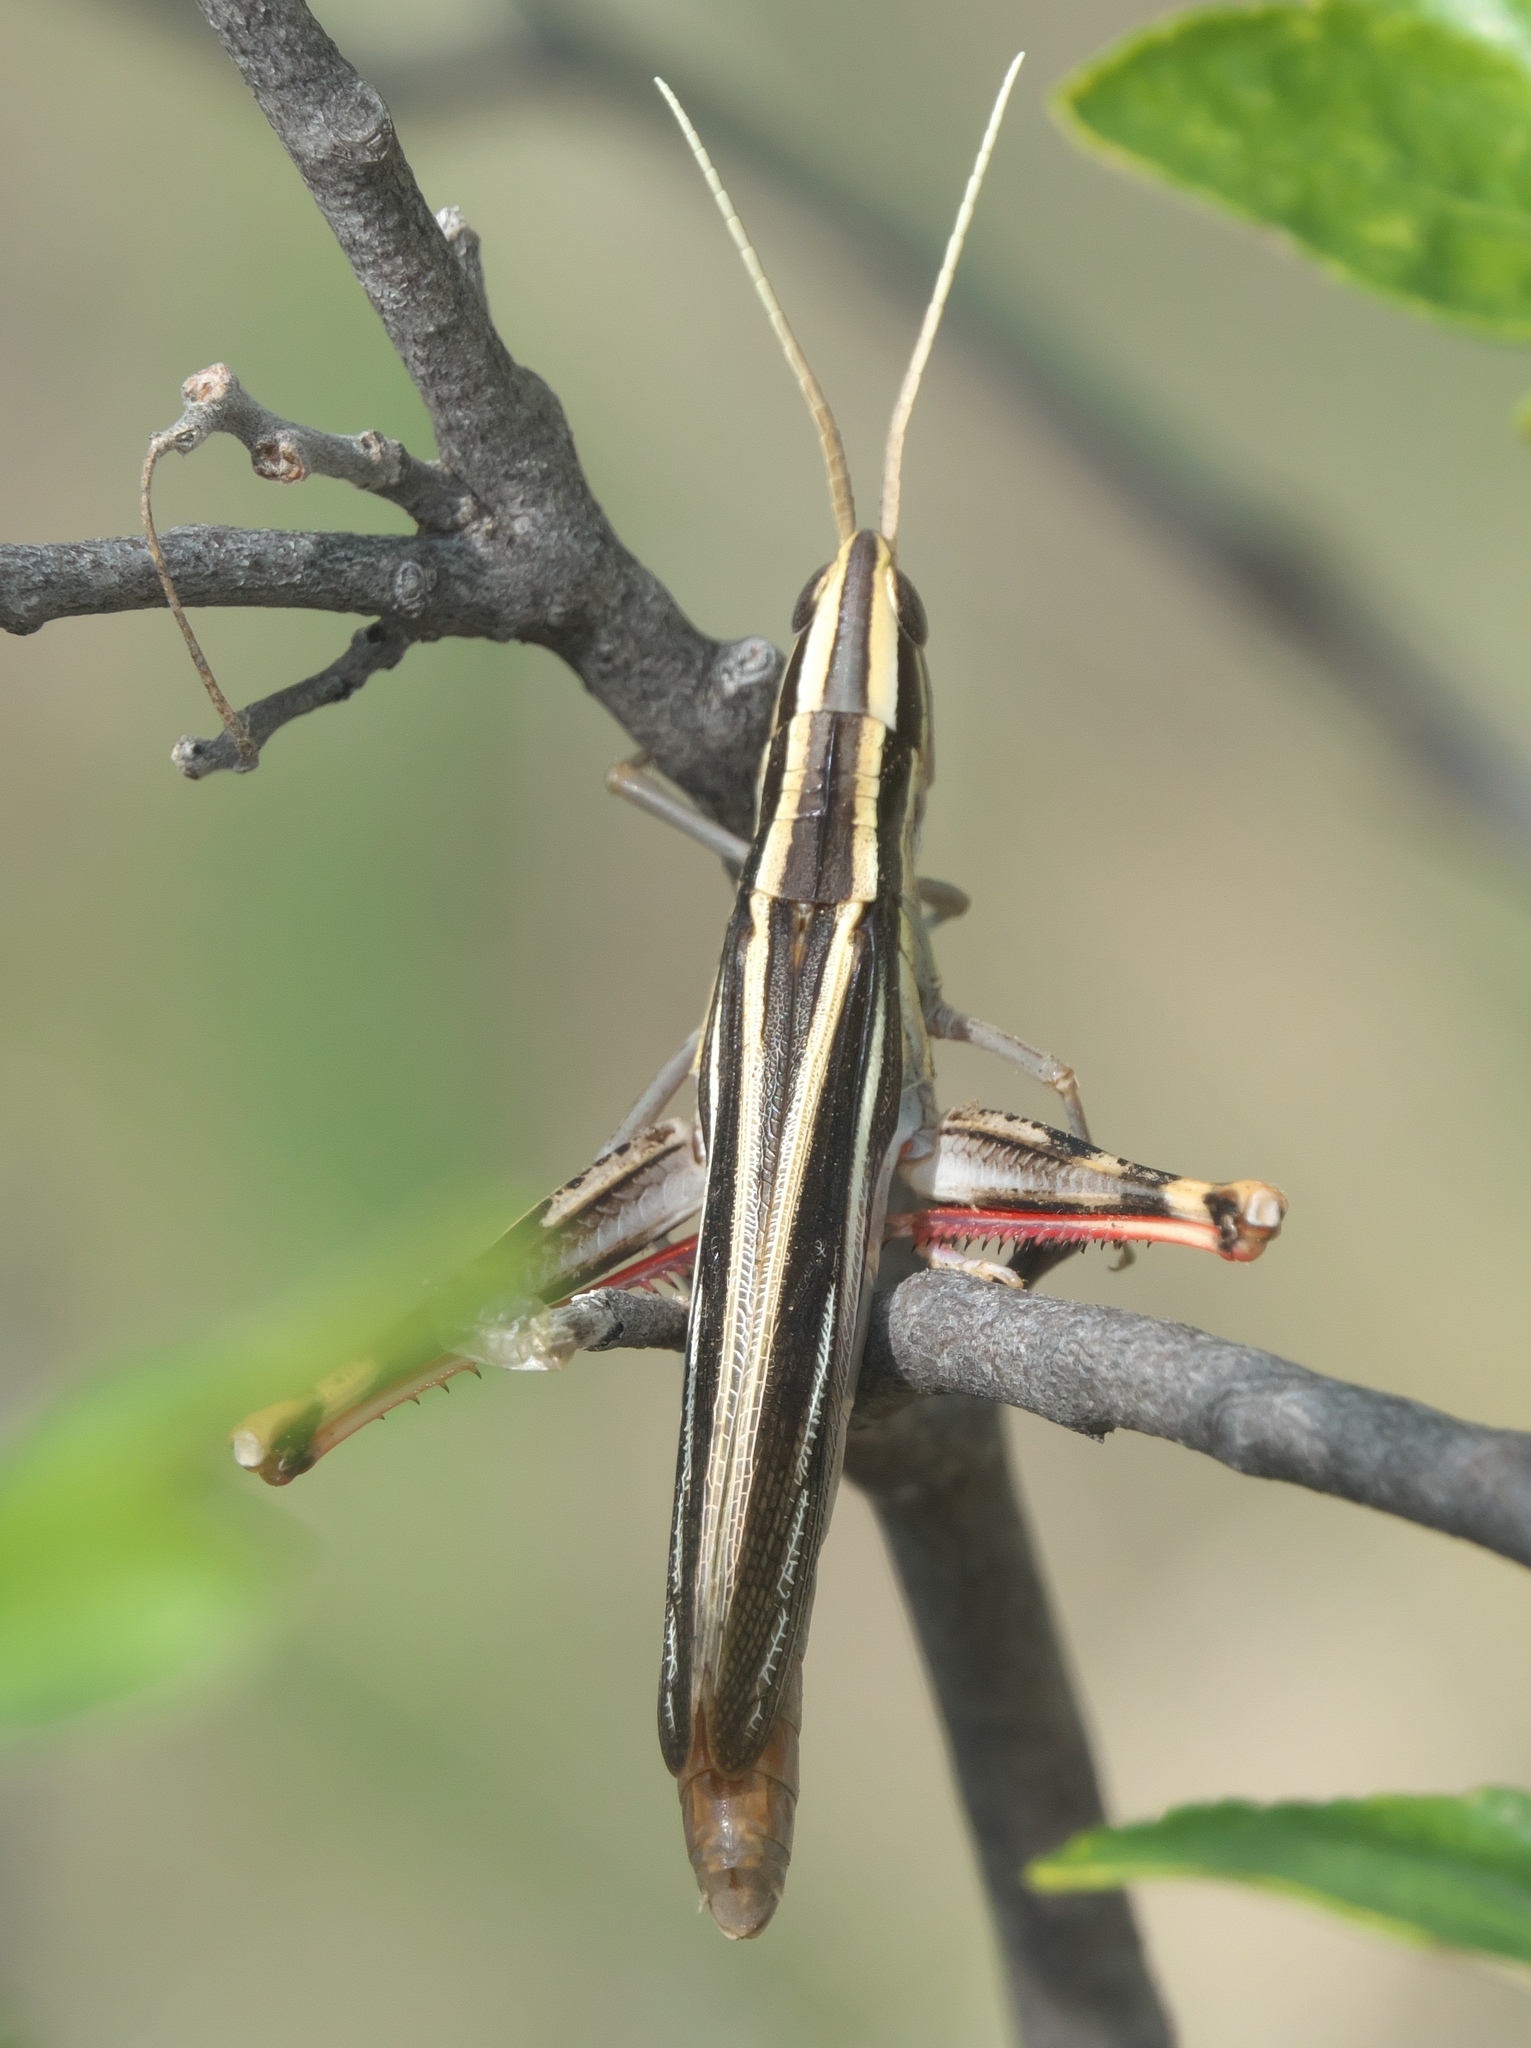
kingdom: Animalia
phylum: Arthropoda
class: Insecta
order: Orthoptera
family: Acrididae
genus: Mermiria
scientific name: Mermiria texana
